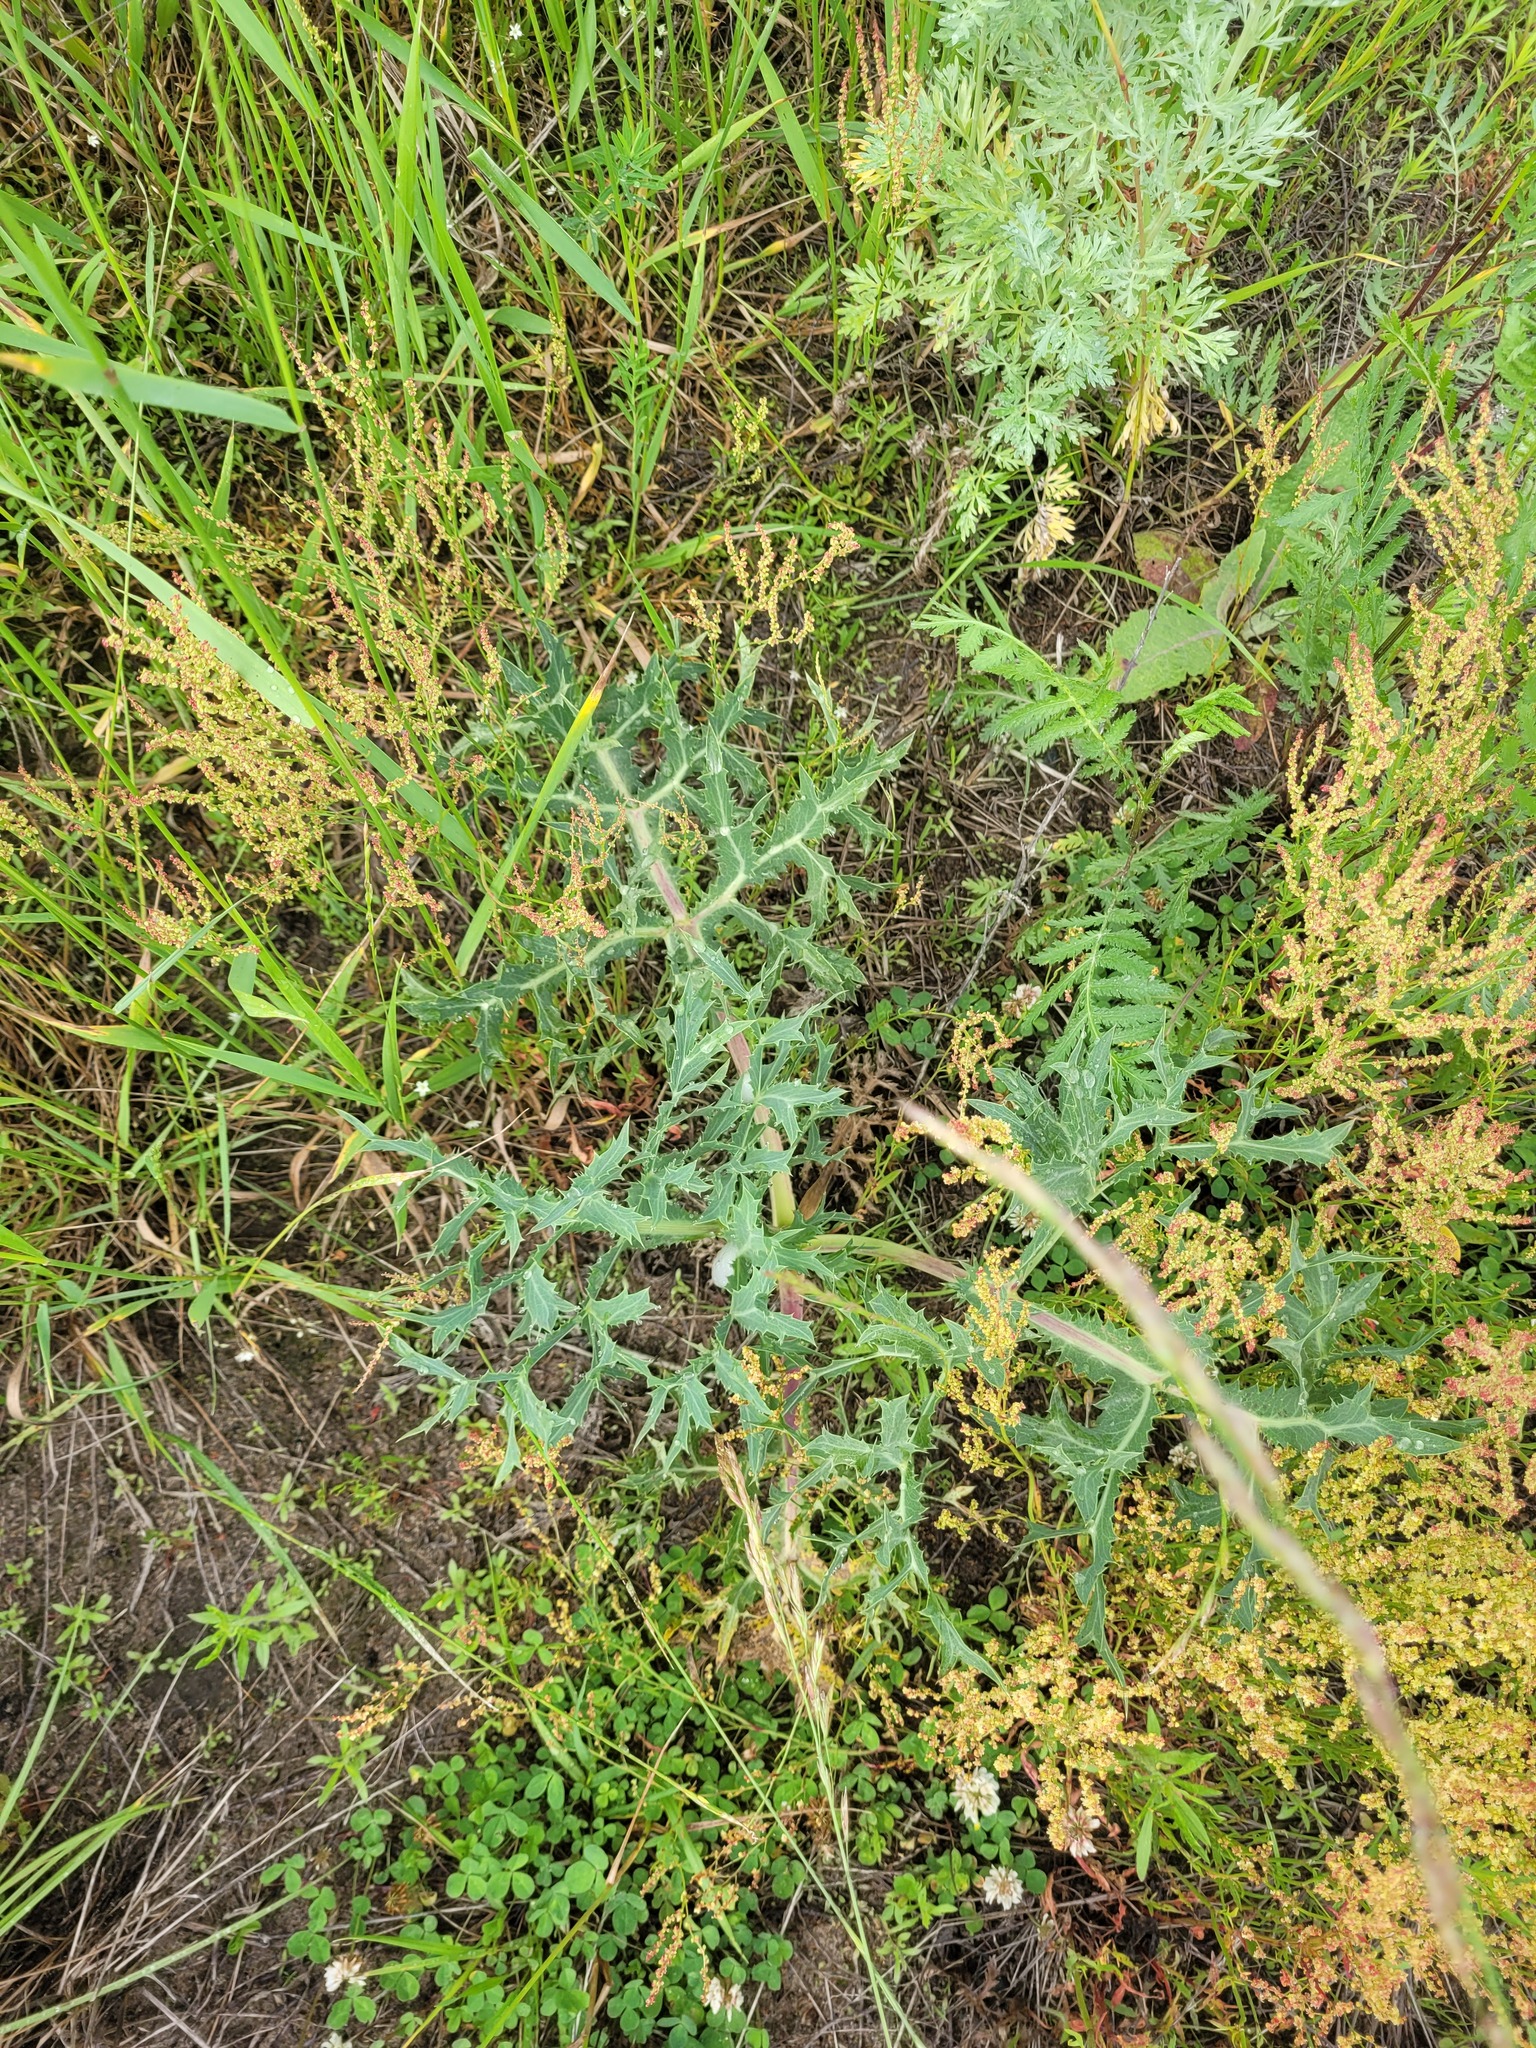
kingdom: Plantae
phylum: Tracheophyta
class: Magnoliopsida
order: Apiales
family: Apiaceae
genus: Eryngium
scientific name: Eryngium campestre
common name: Field eryngo
